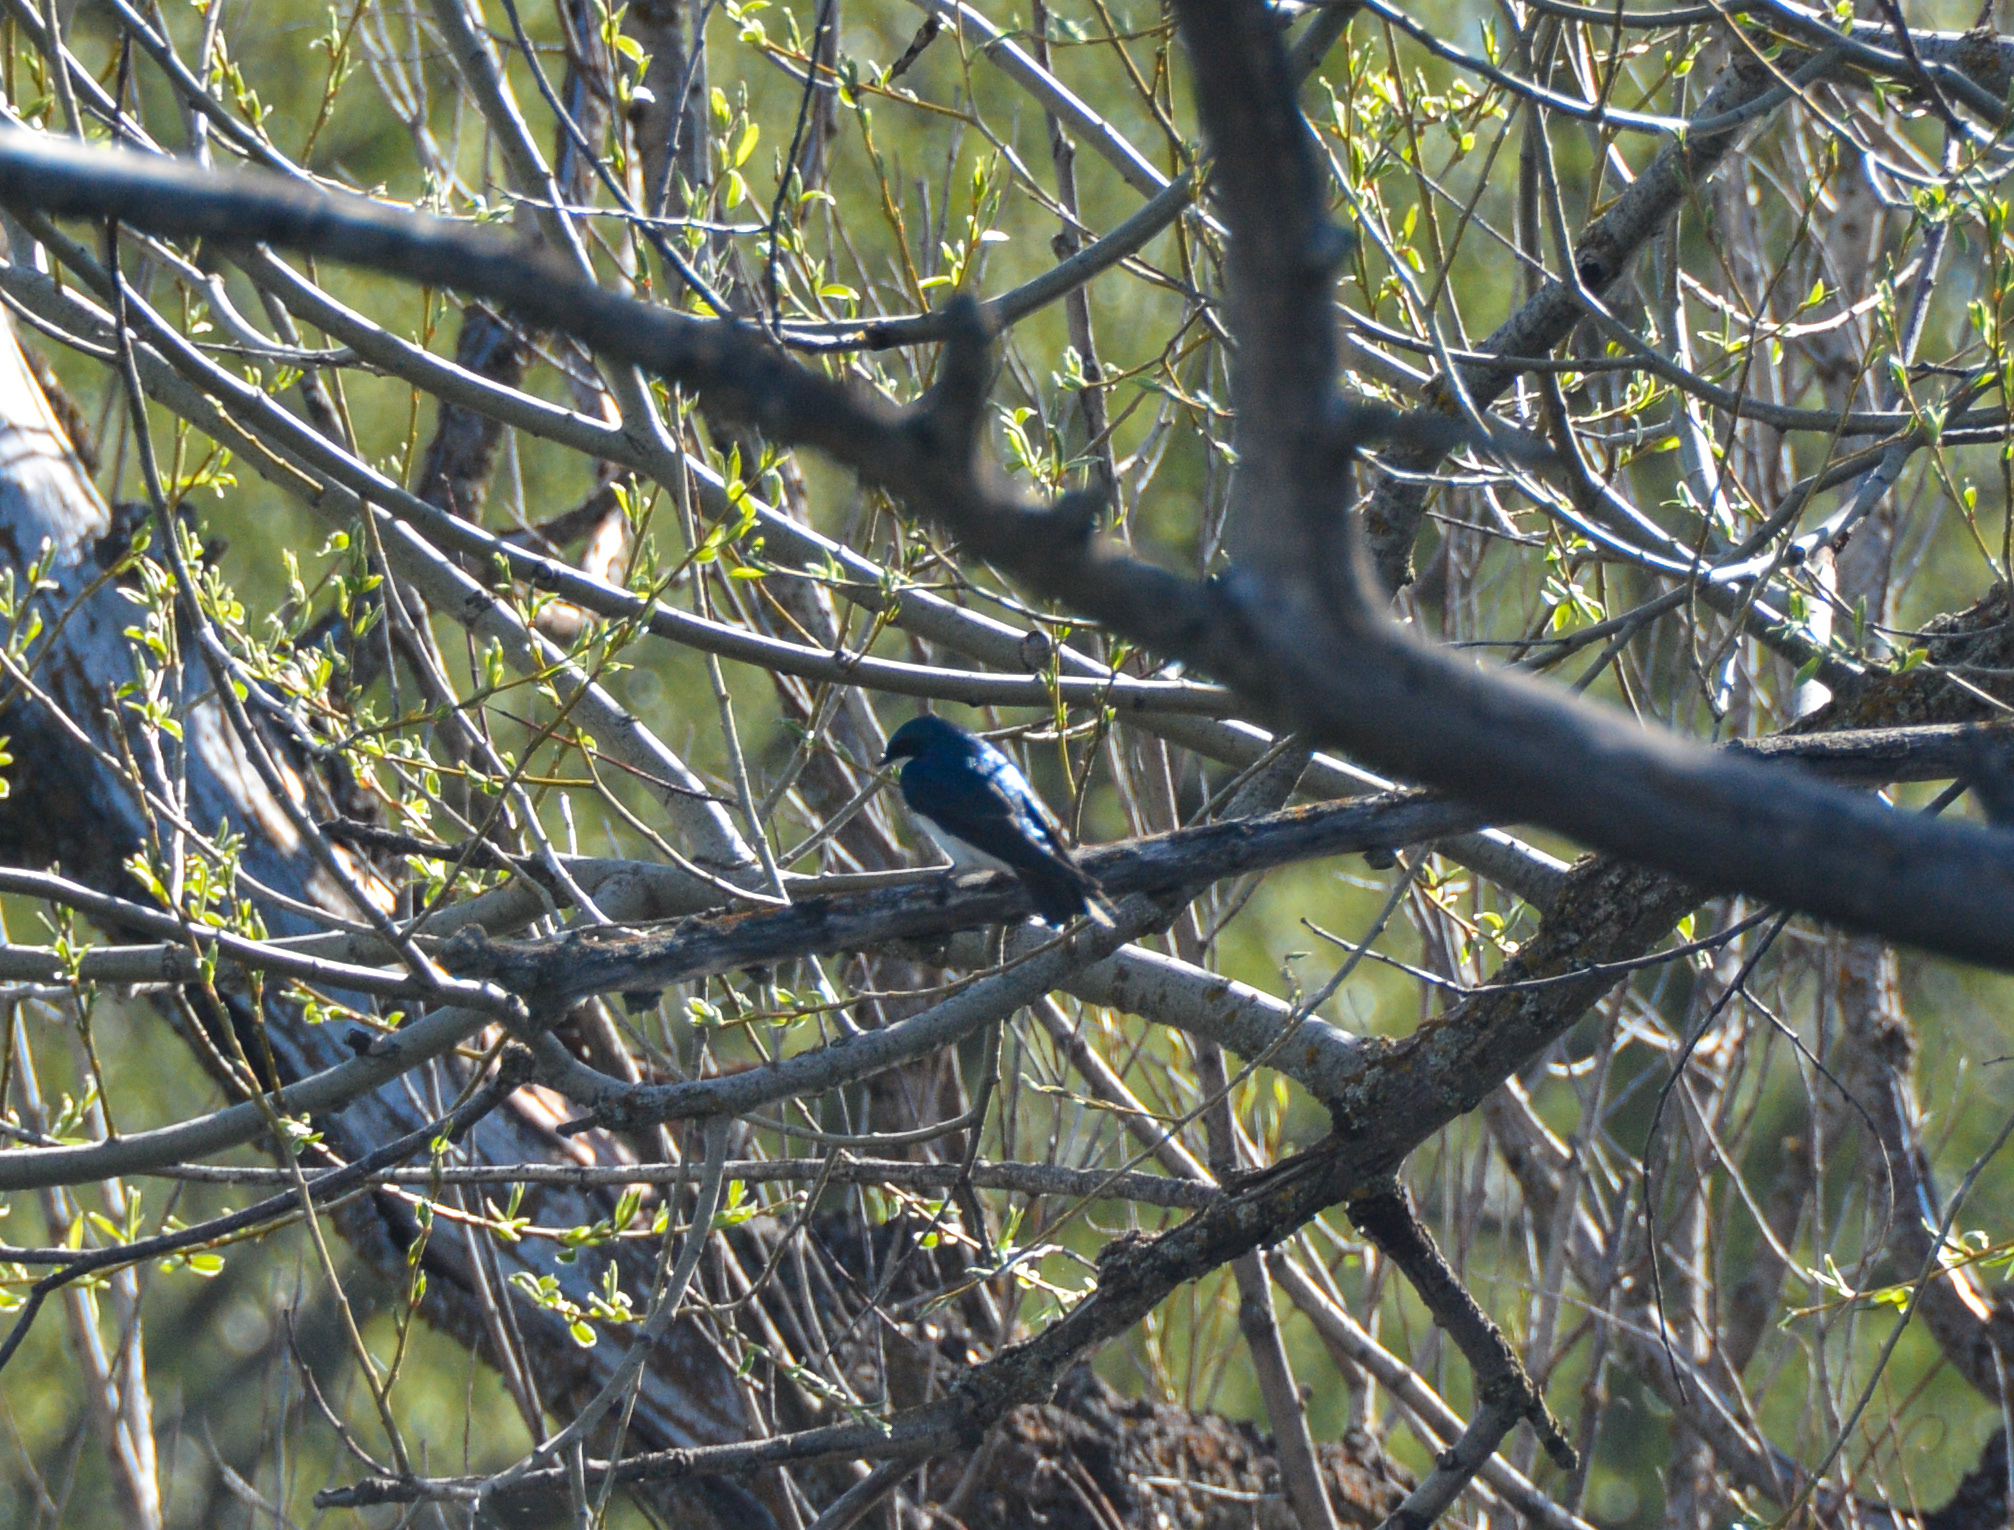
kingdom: Animalia
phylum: Chordata
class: Aves
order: Passeriformes
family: Hirundinidae
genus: Tachycineta
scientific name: Tachycineta bicolor
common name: Tree swallow
